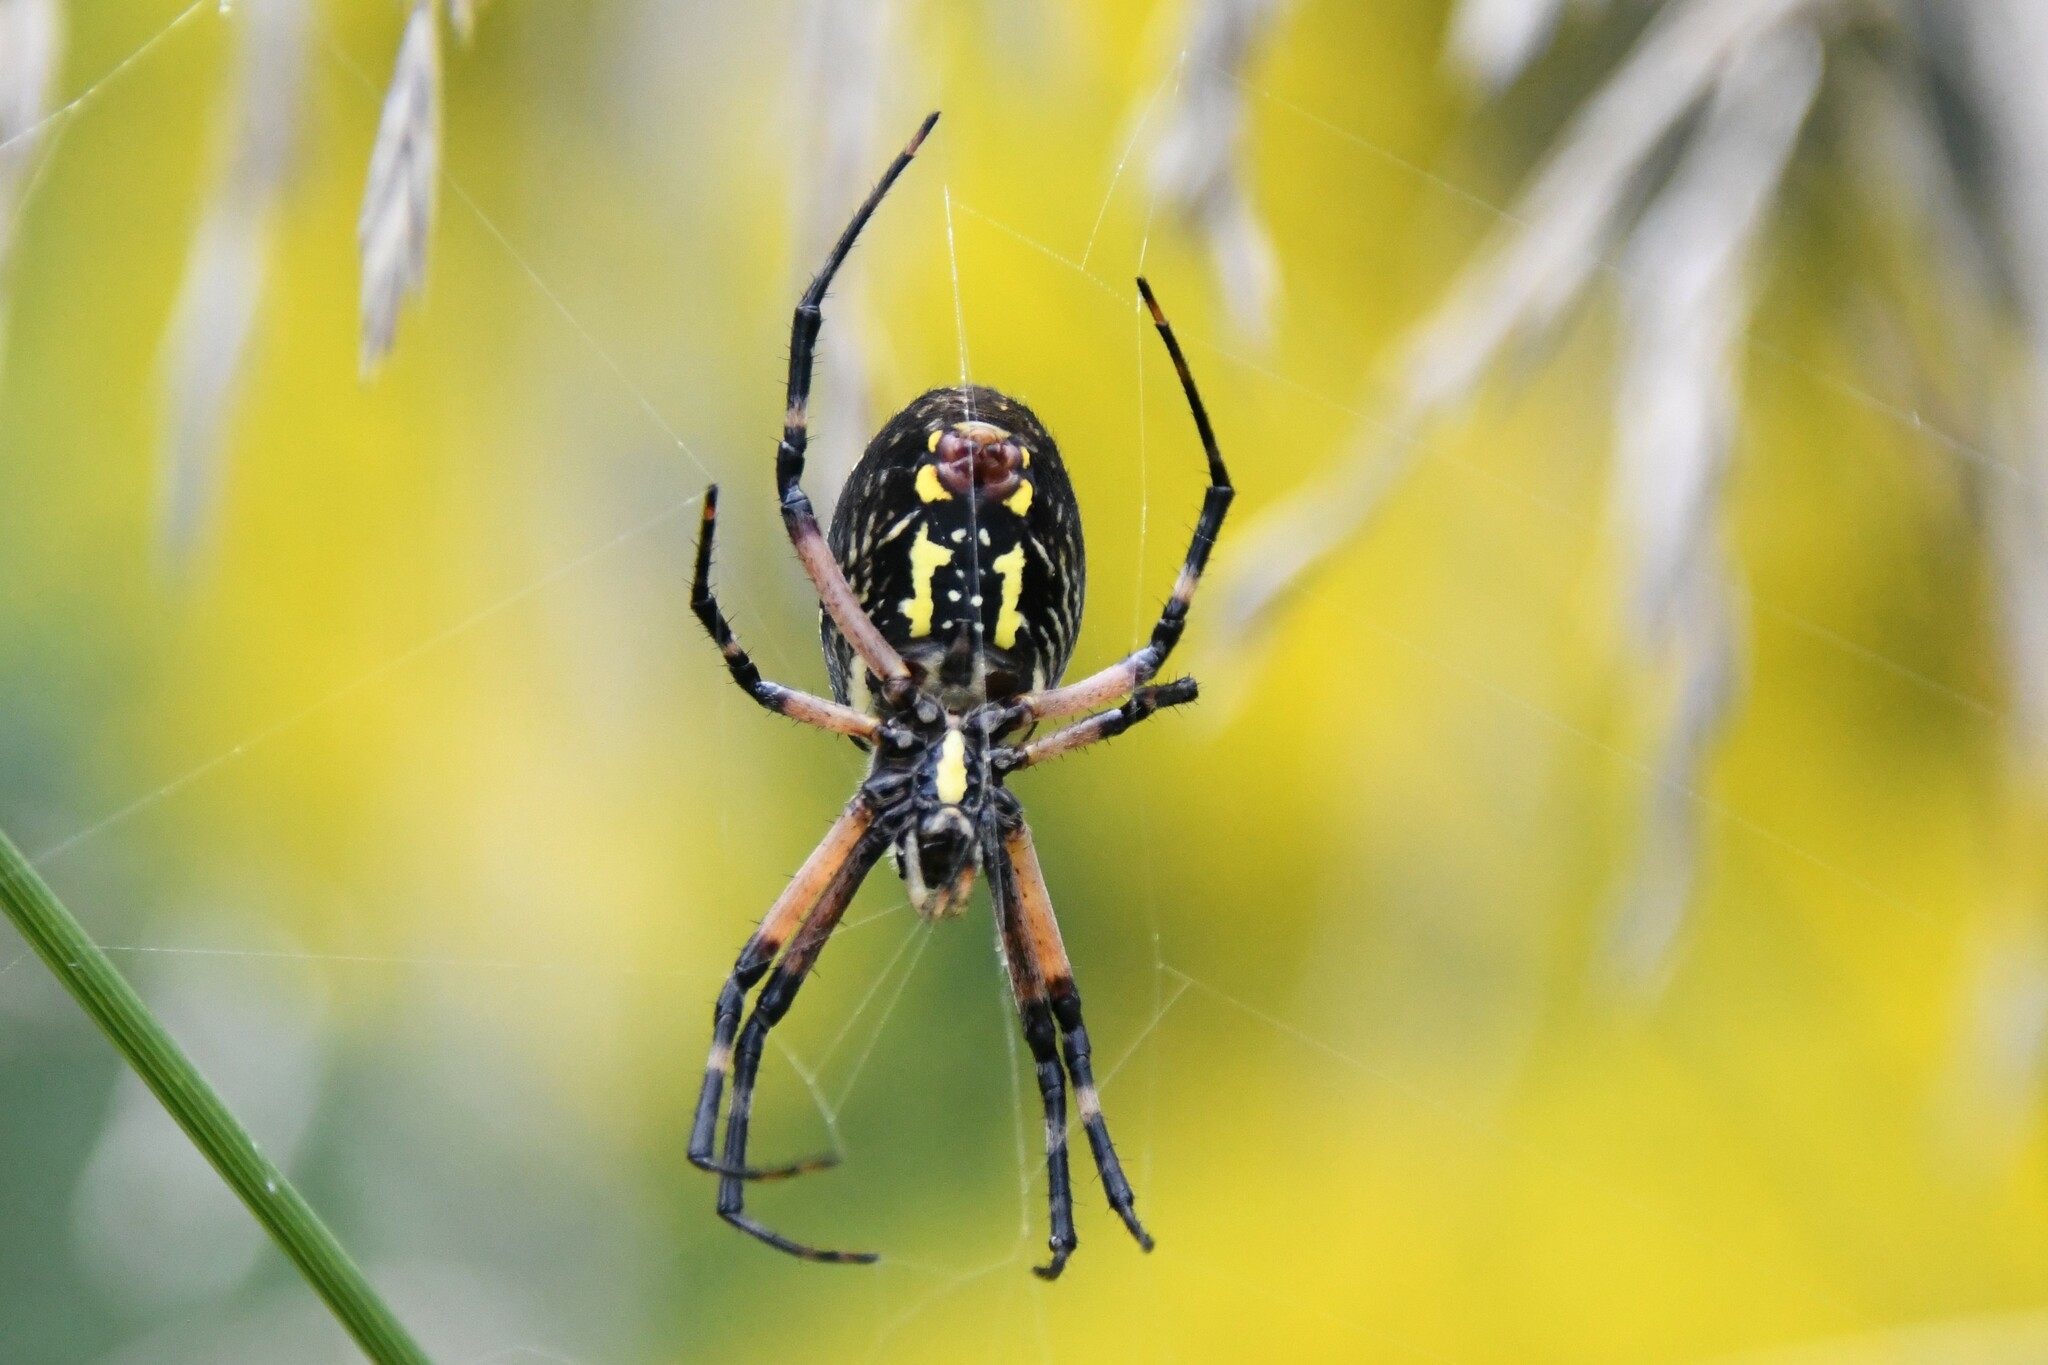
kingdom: Animalia
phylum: Arthropoda
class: Arachnida
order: Araneae
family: Araneidae
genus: Argiope
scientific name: Argiope aurantia
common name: Orb weavers
